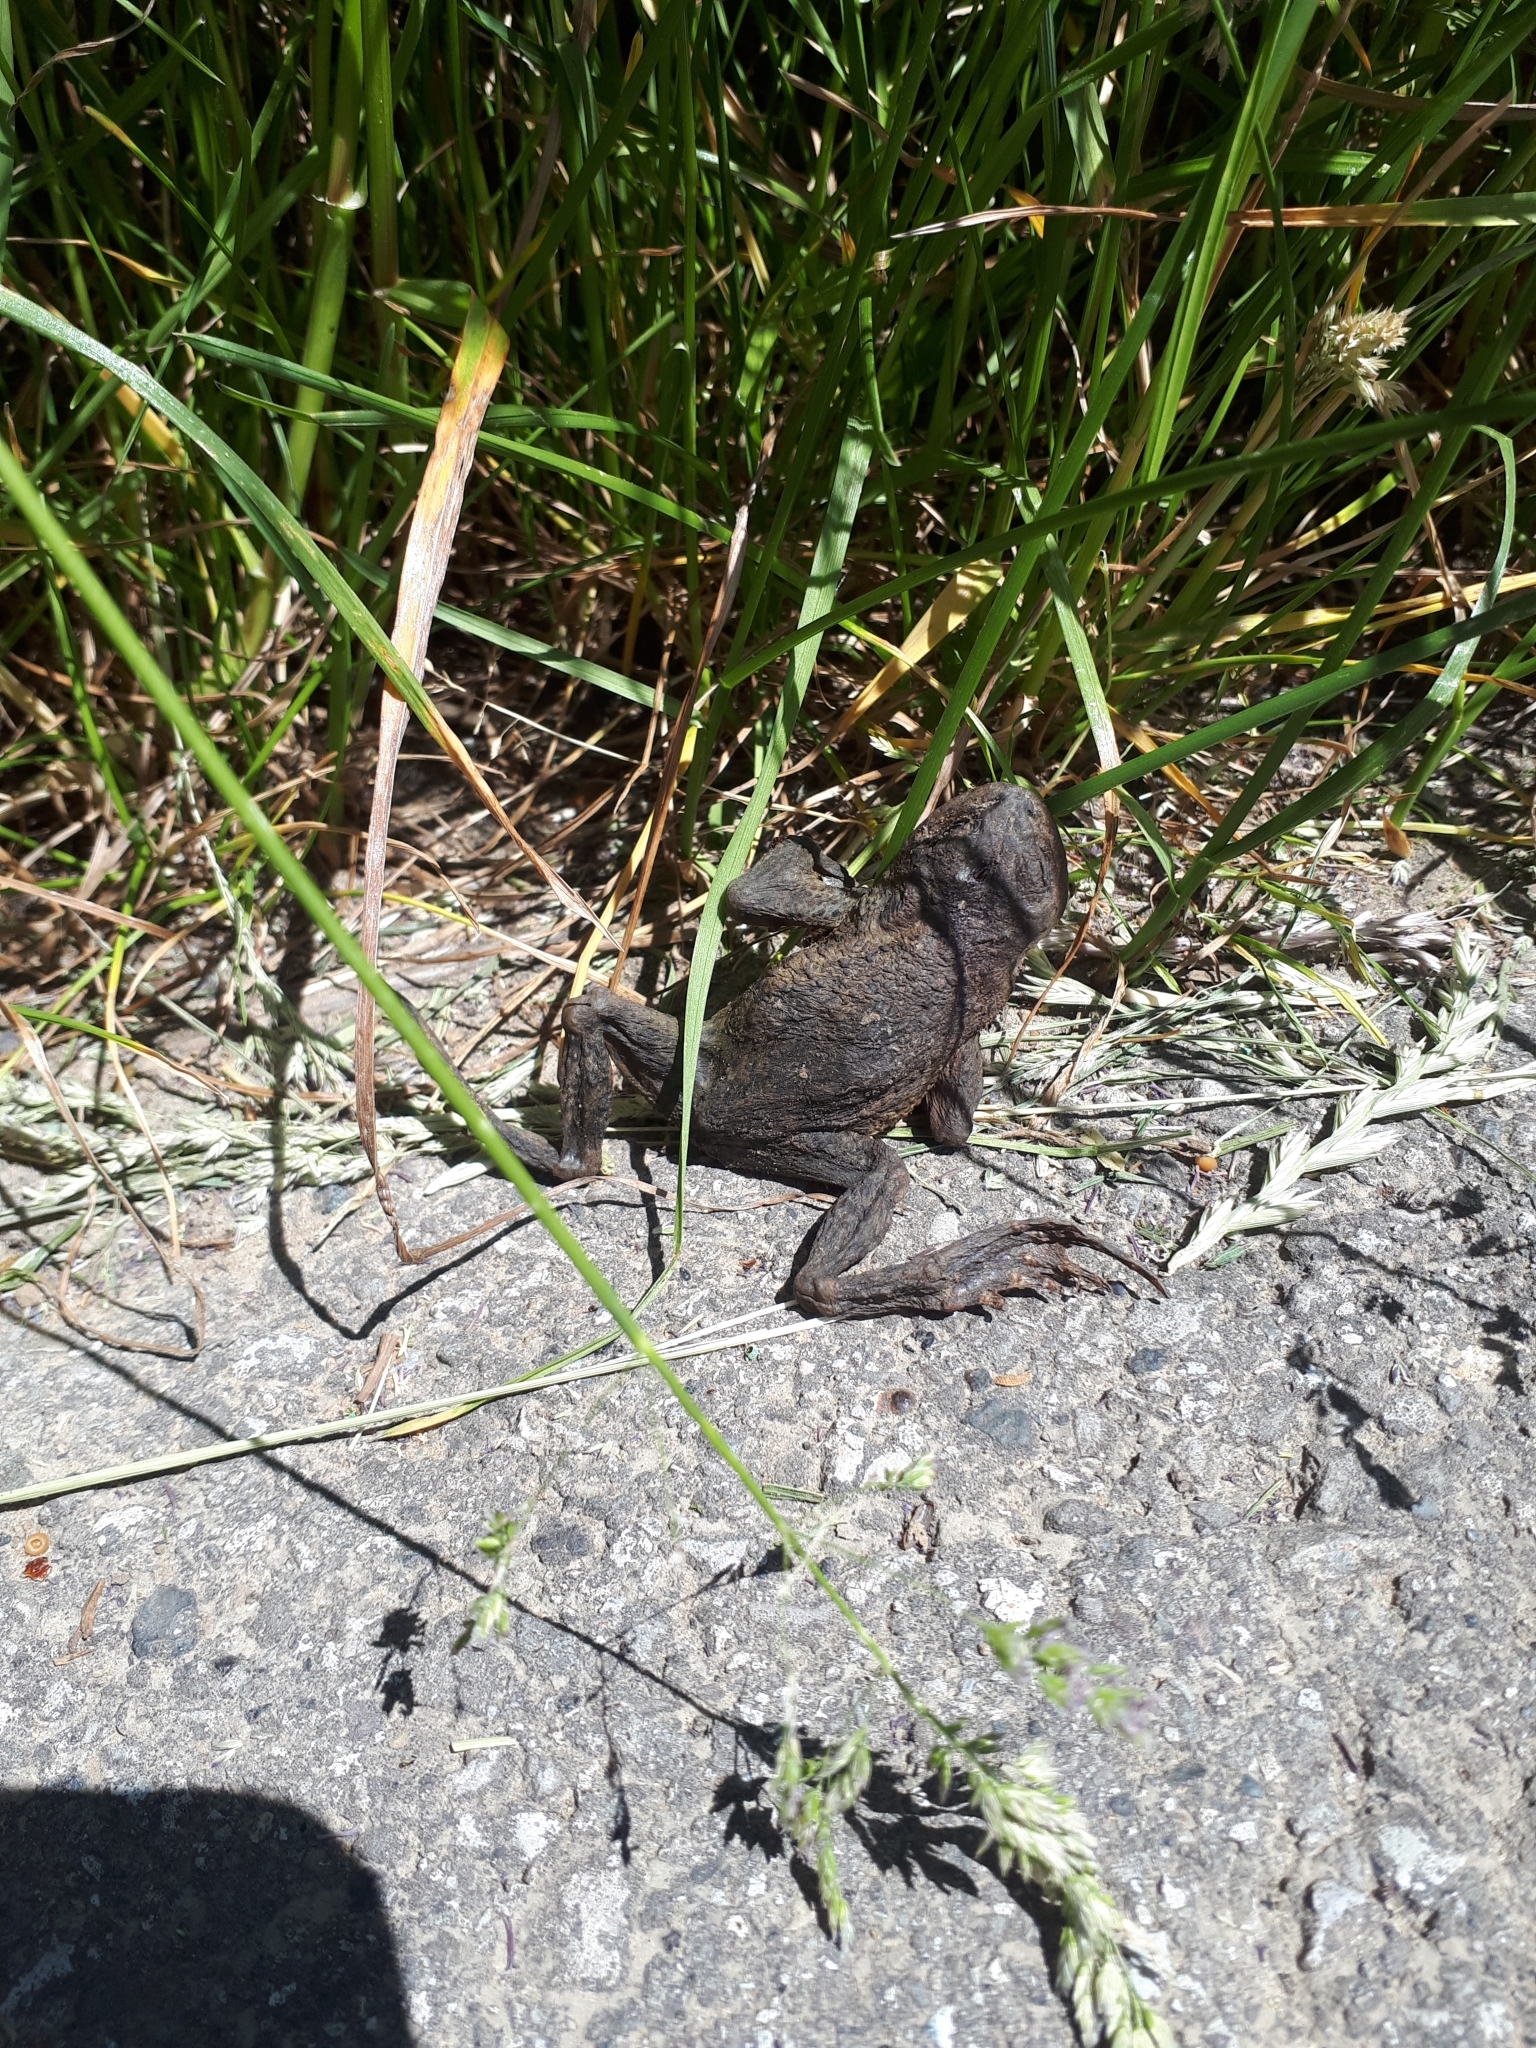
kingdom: Animalia
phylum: Chordata
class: Amphibia
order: Anura
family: Bufonidae
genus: Bufo
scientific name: Bufo bufo
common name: Common toad
